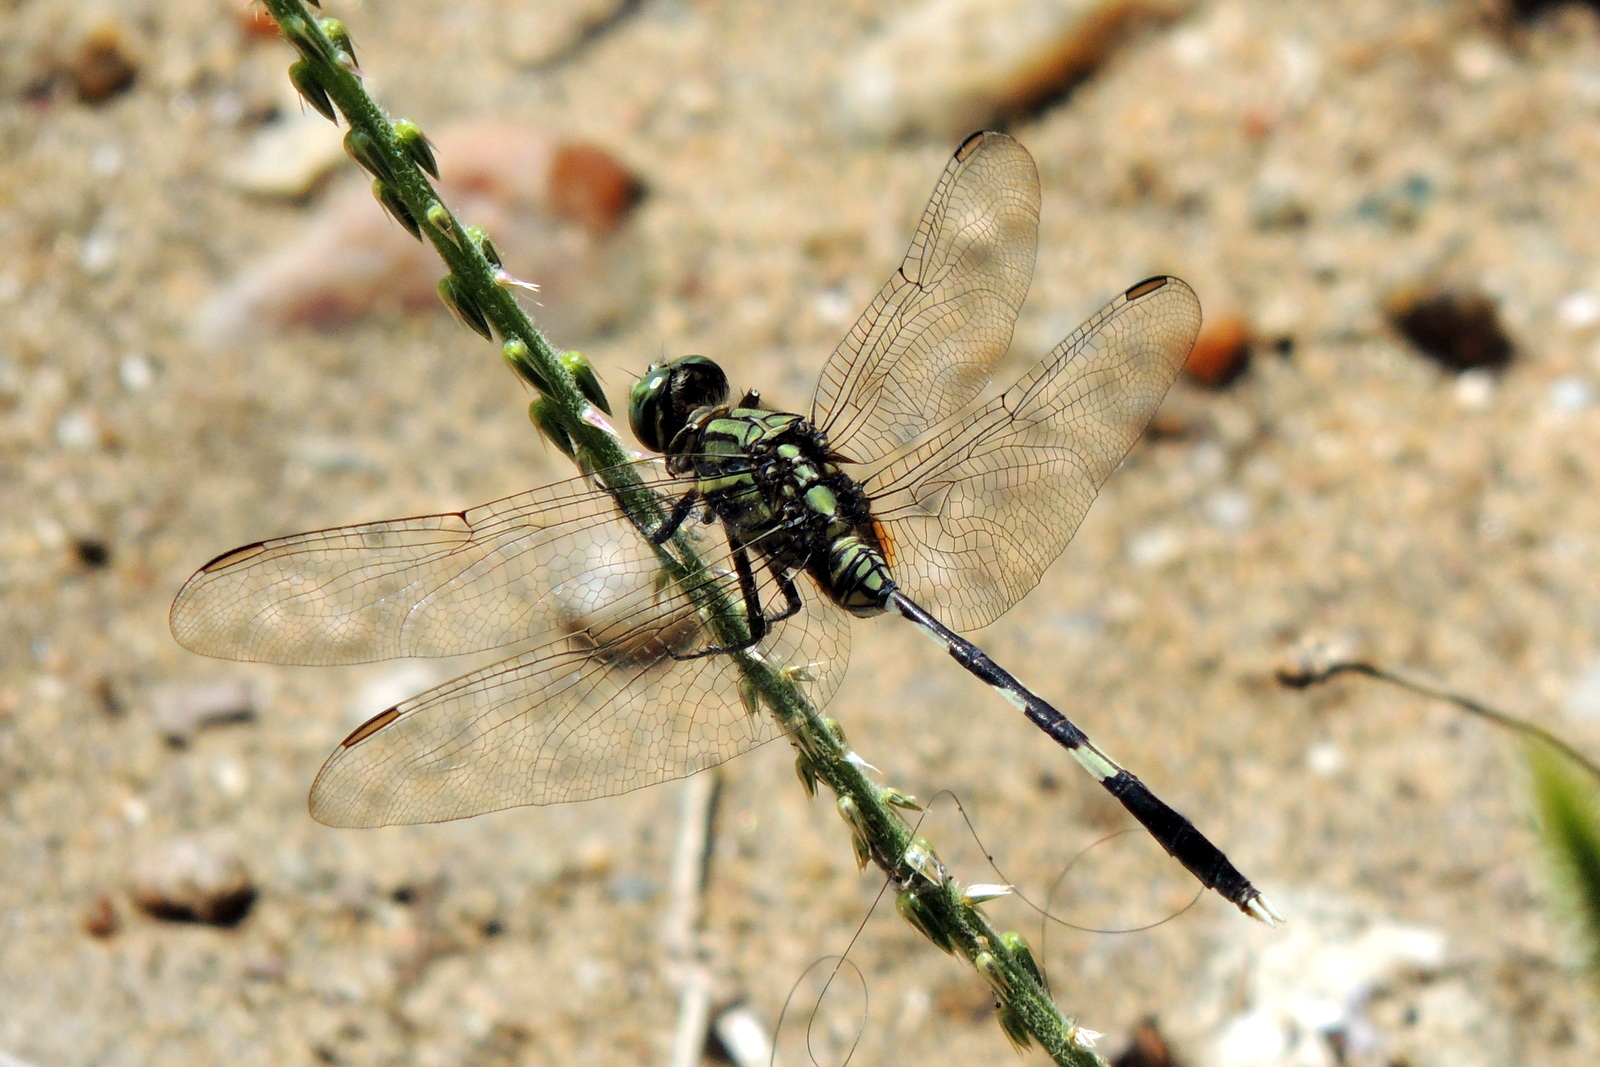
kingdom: Animalia
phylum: Arthropoda
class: Insecta
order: Odonata
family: Libellulidae
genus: Orthetrum
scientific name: Orthetrum sabina
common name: Slender skimmer
